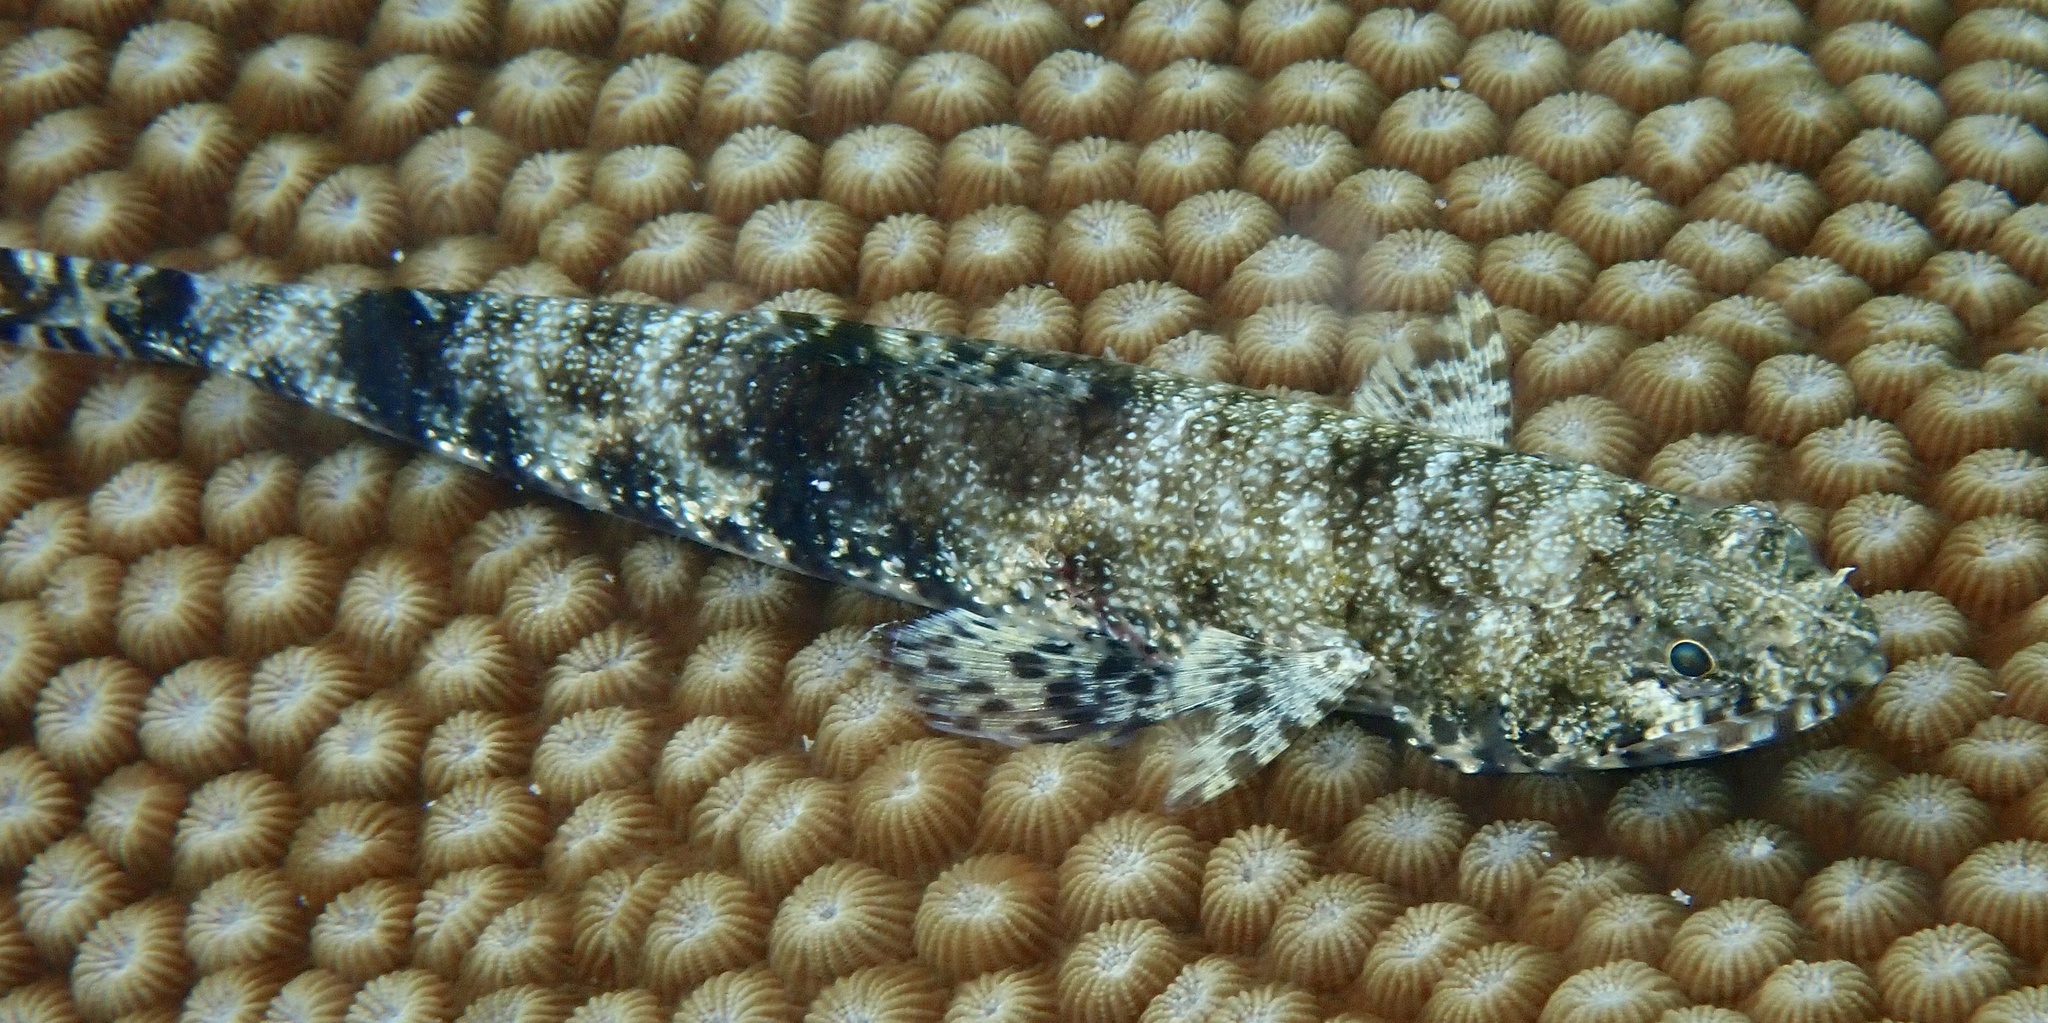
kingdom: Animalia
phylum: Chordata
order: Aulopiformes
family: Synodontidae
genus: Saurida
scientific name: Saurida gracilis
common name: Slender lizardfish
